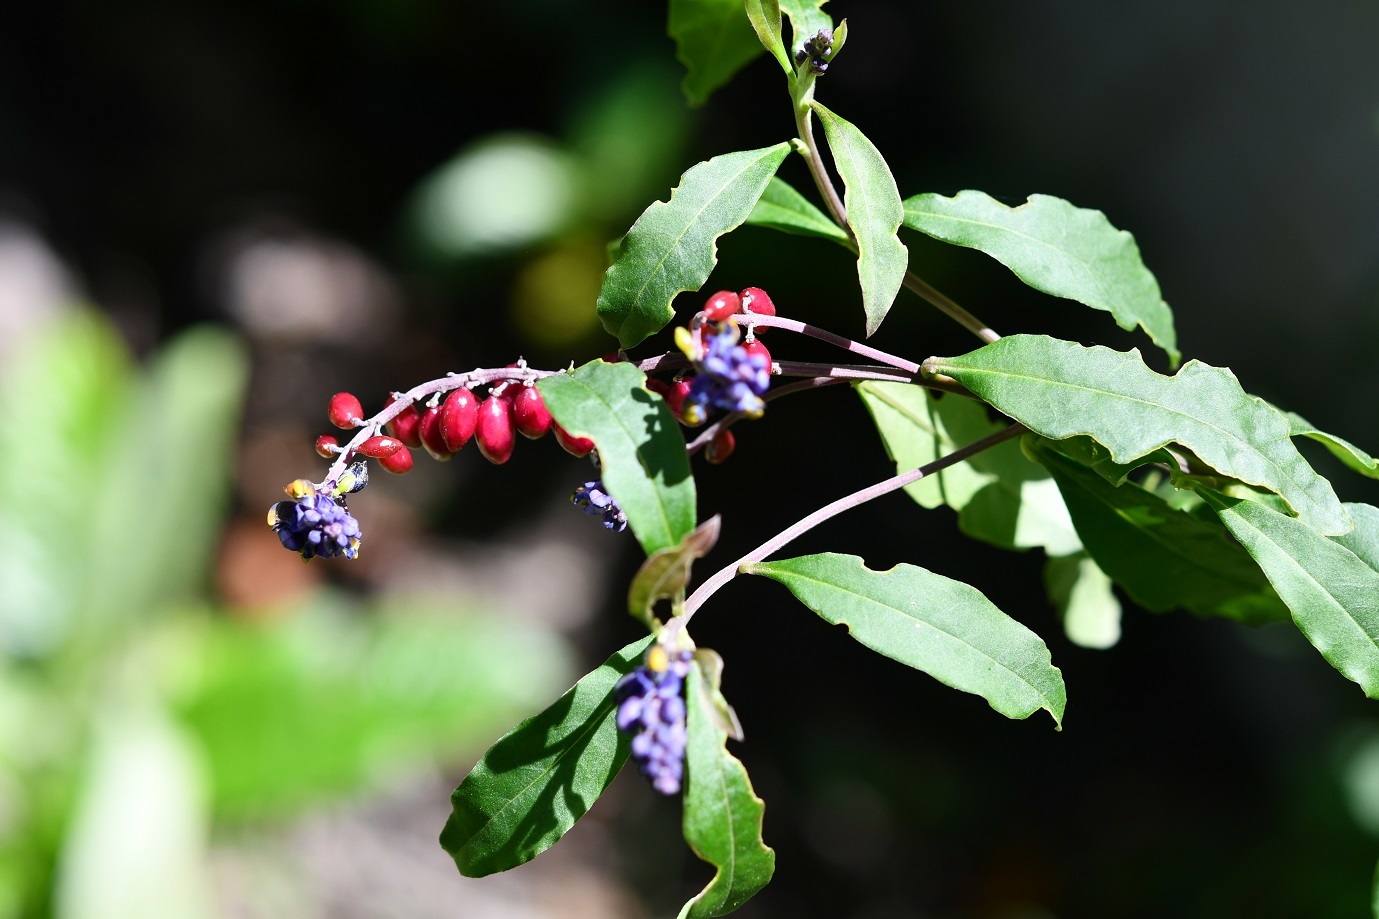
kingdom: Plantae
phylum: Tracheophyta
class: Magnoliopsida
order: Fabales
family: Polygalaceae
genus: Monnina
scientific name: Monnina xalapensis
